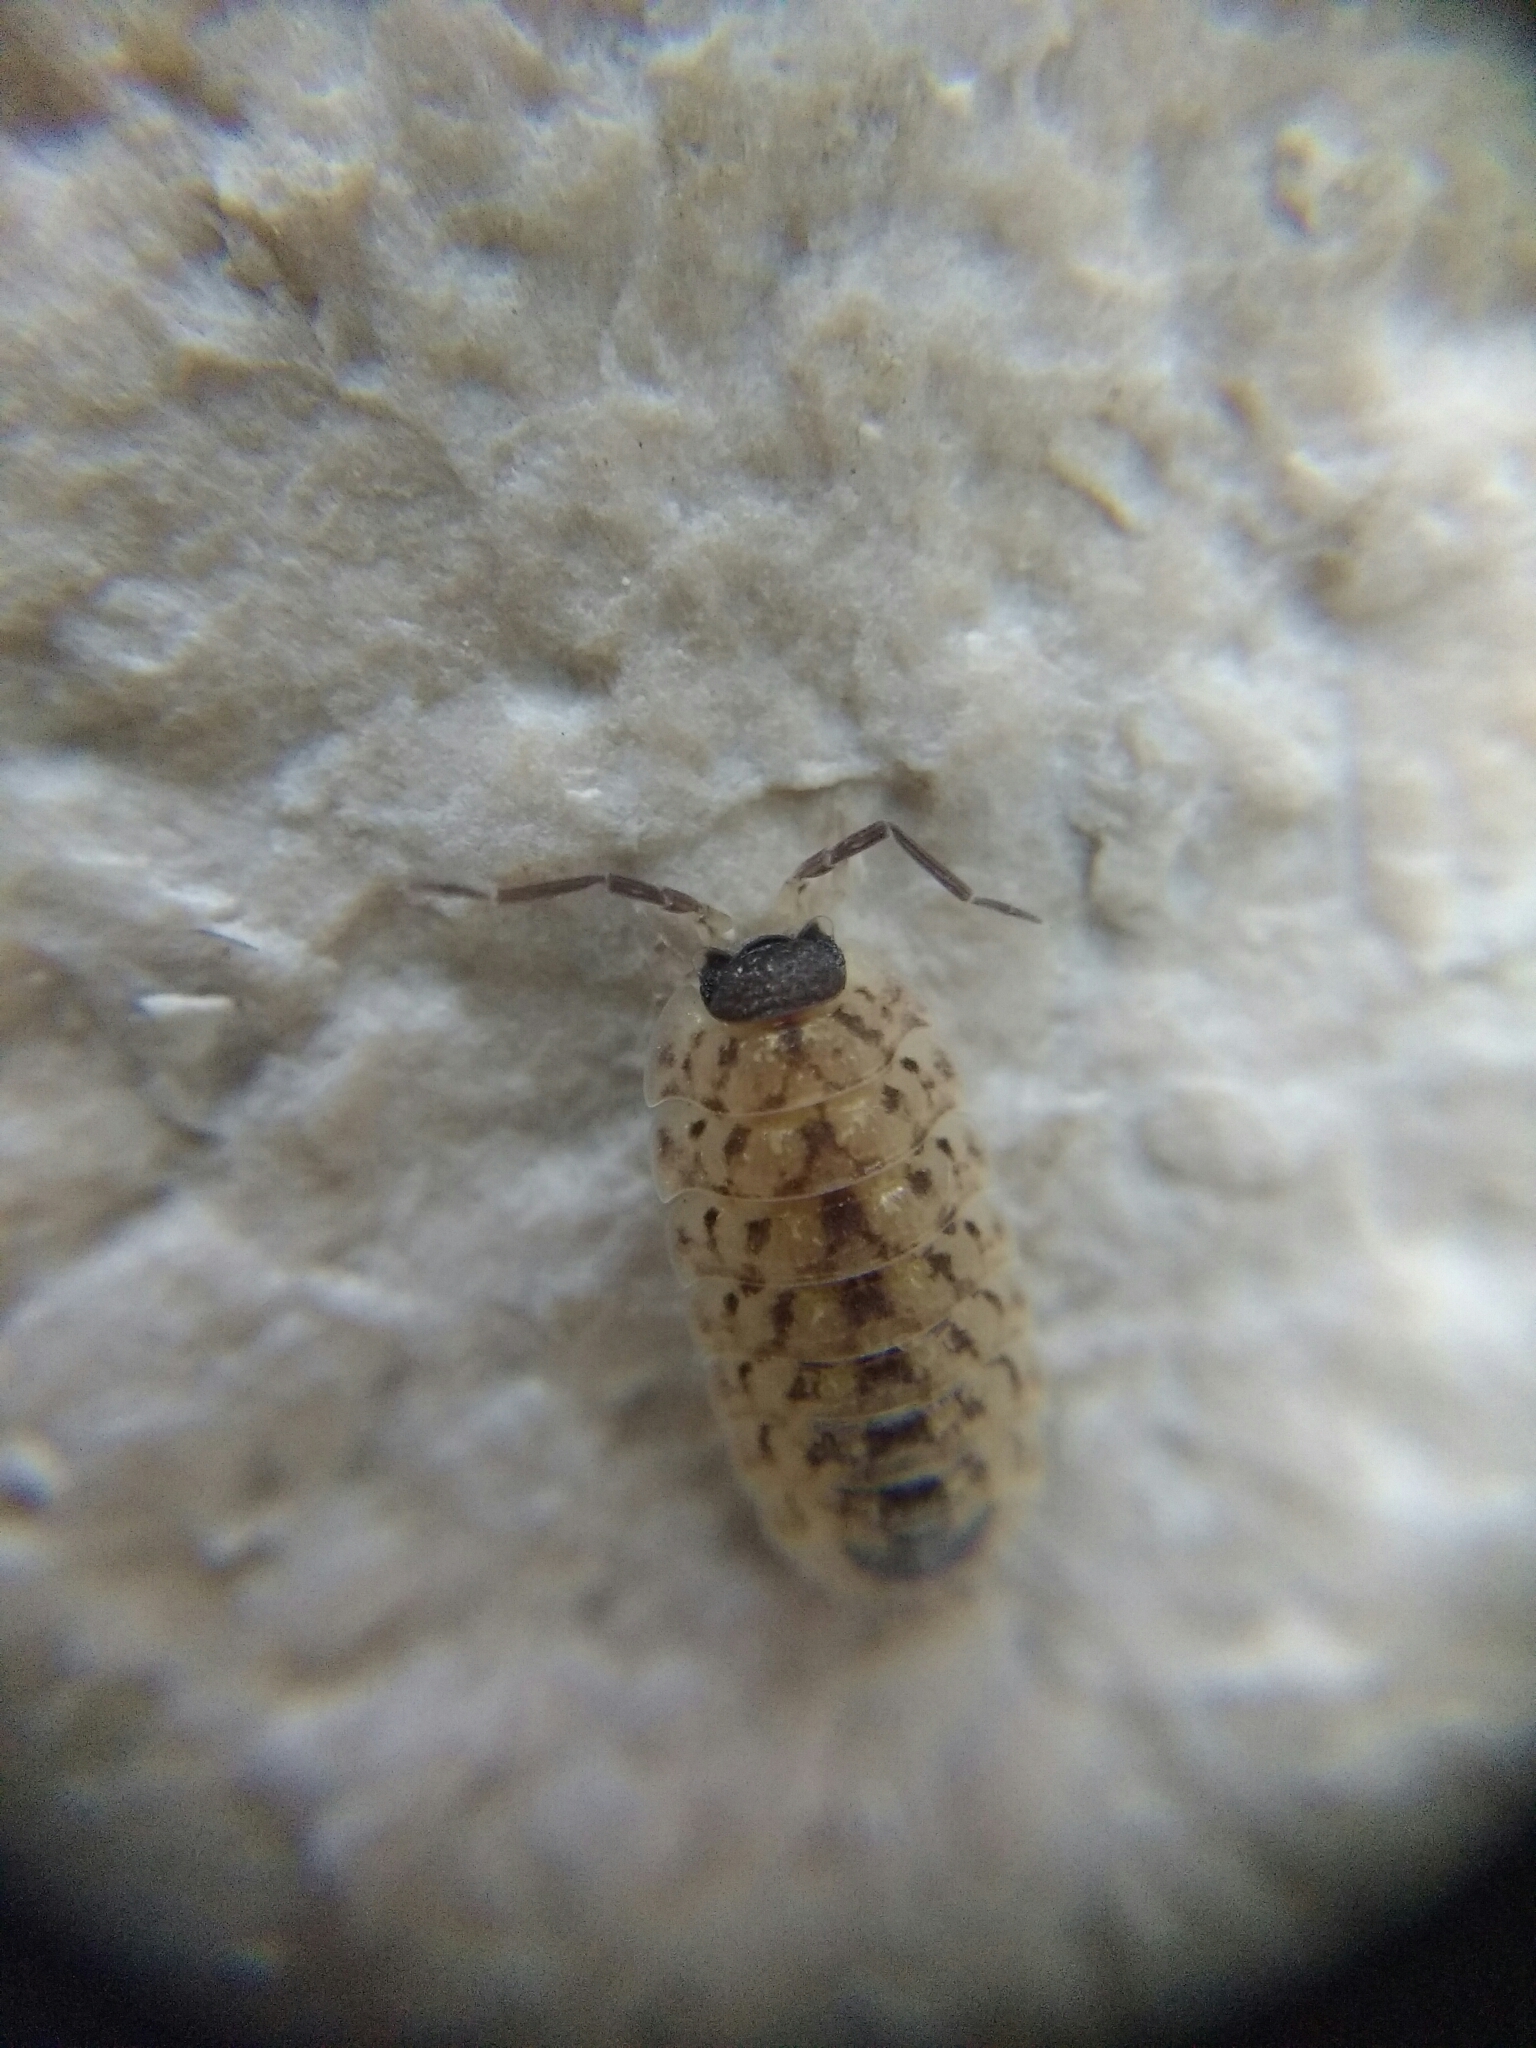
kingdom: Animalia
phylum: Arthropoda
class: Malacostraca
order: Isopoda
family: Porcellionidae
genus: Porcellio
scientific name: Porcellio spinicornis
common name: Painted woodlouse
